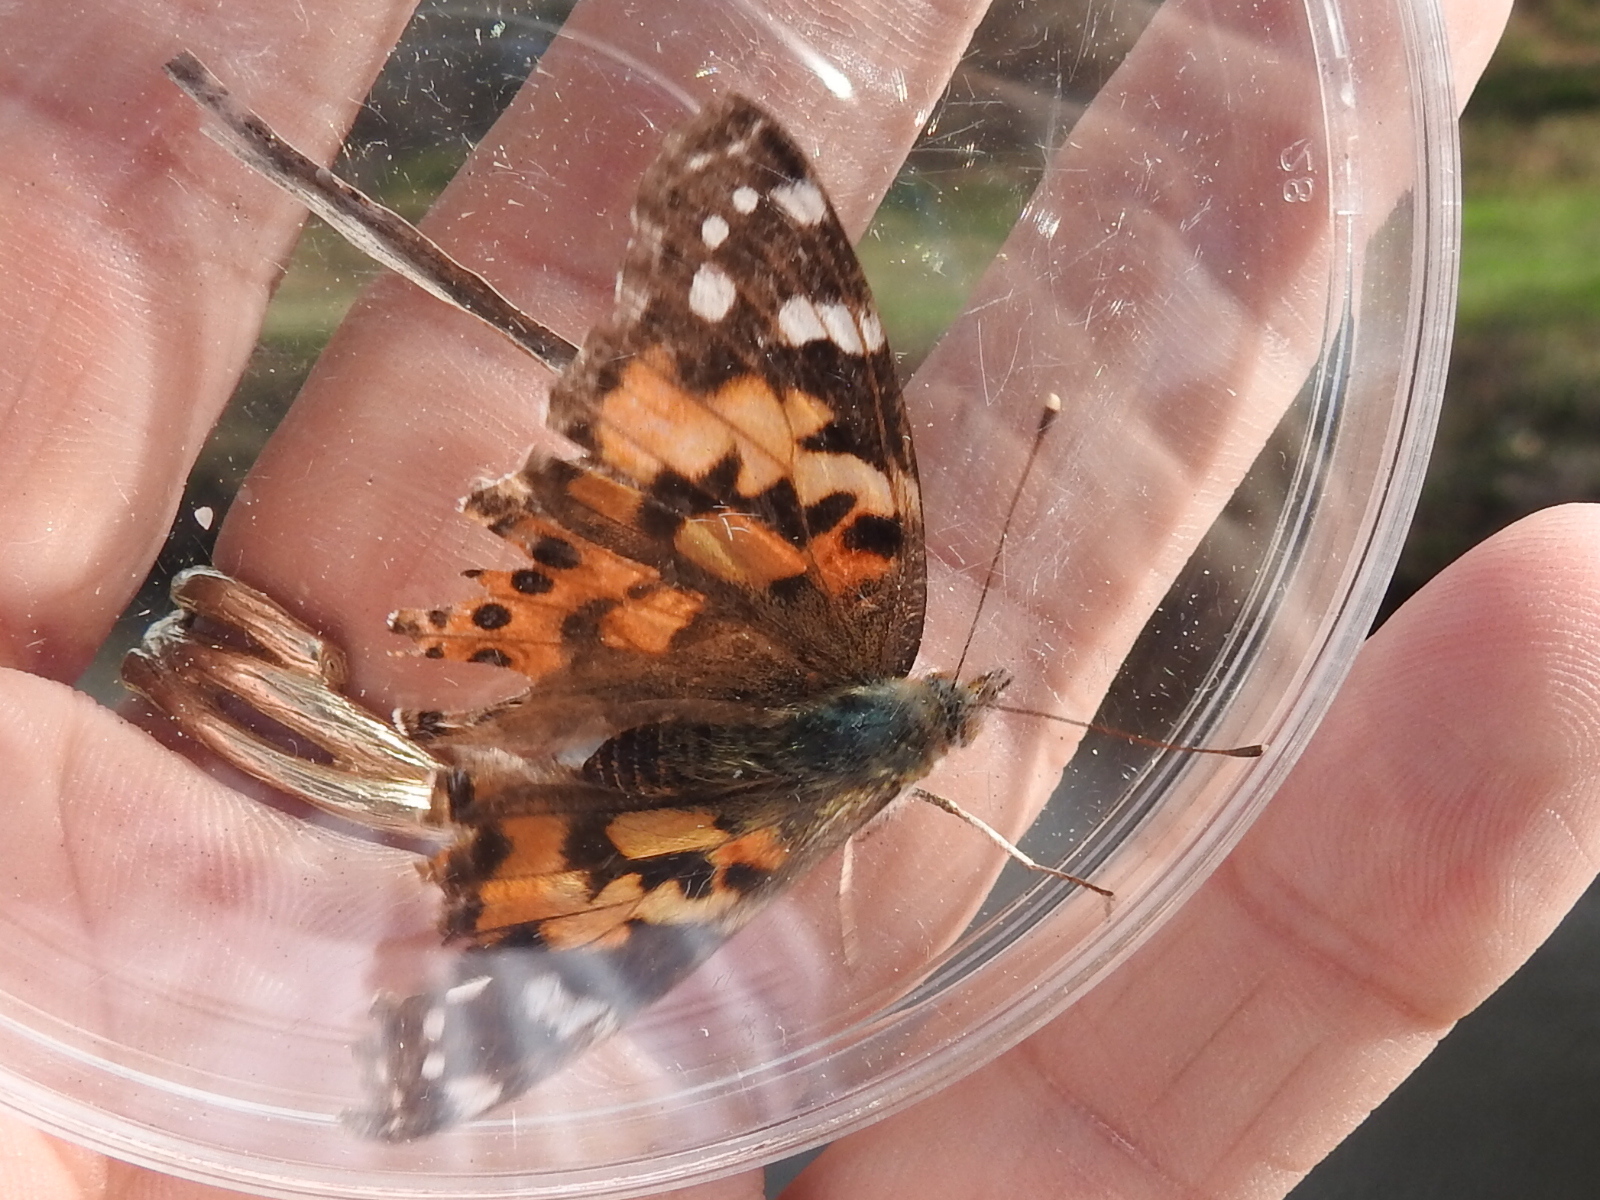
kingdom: Animalia
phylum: Arthropoda
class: Insecta
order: Lepidoptera
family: Nymphalidae
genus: Vanessa
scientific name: Vanessa cardui
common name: Painted lady
